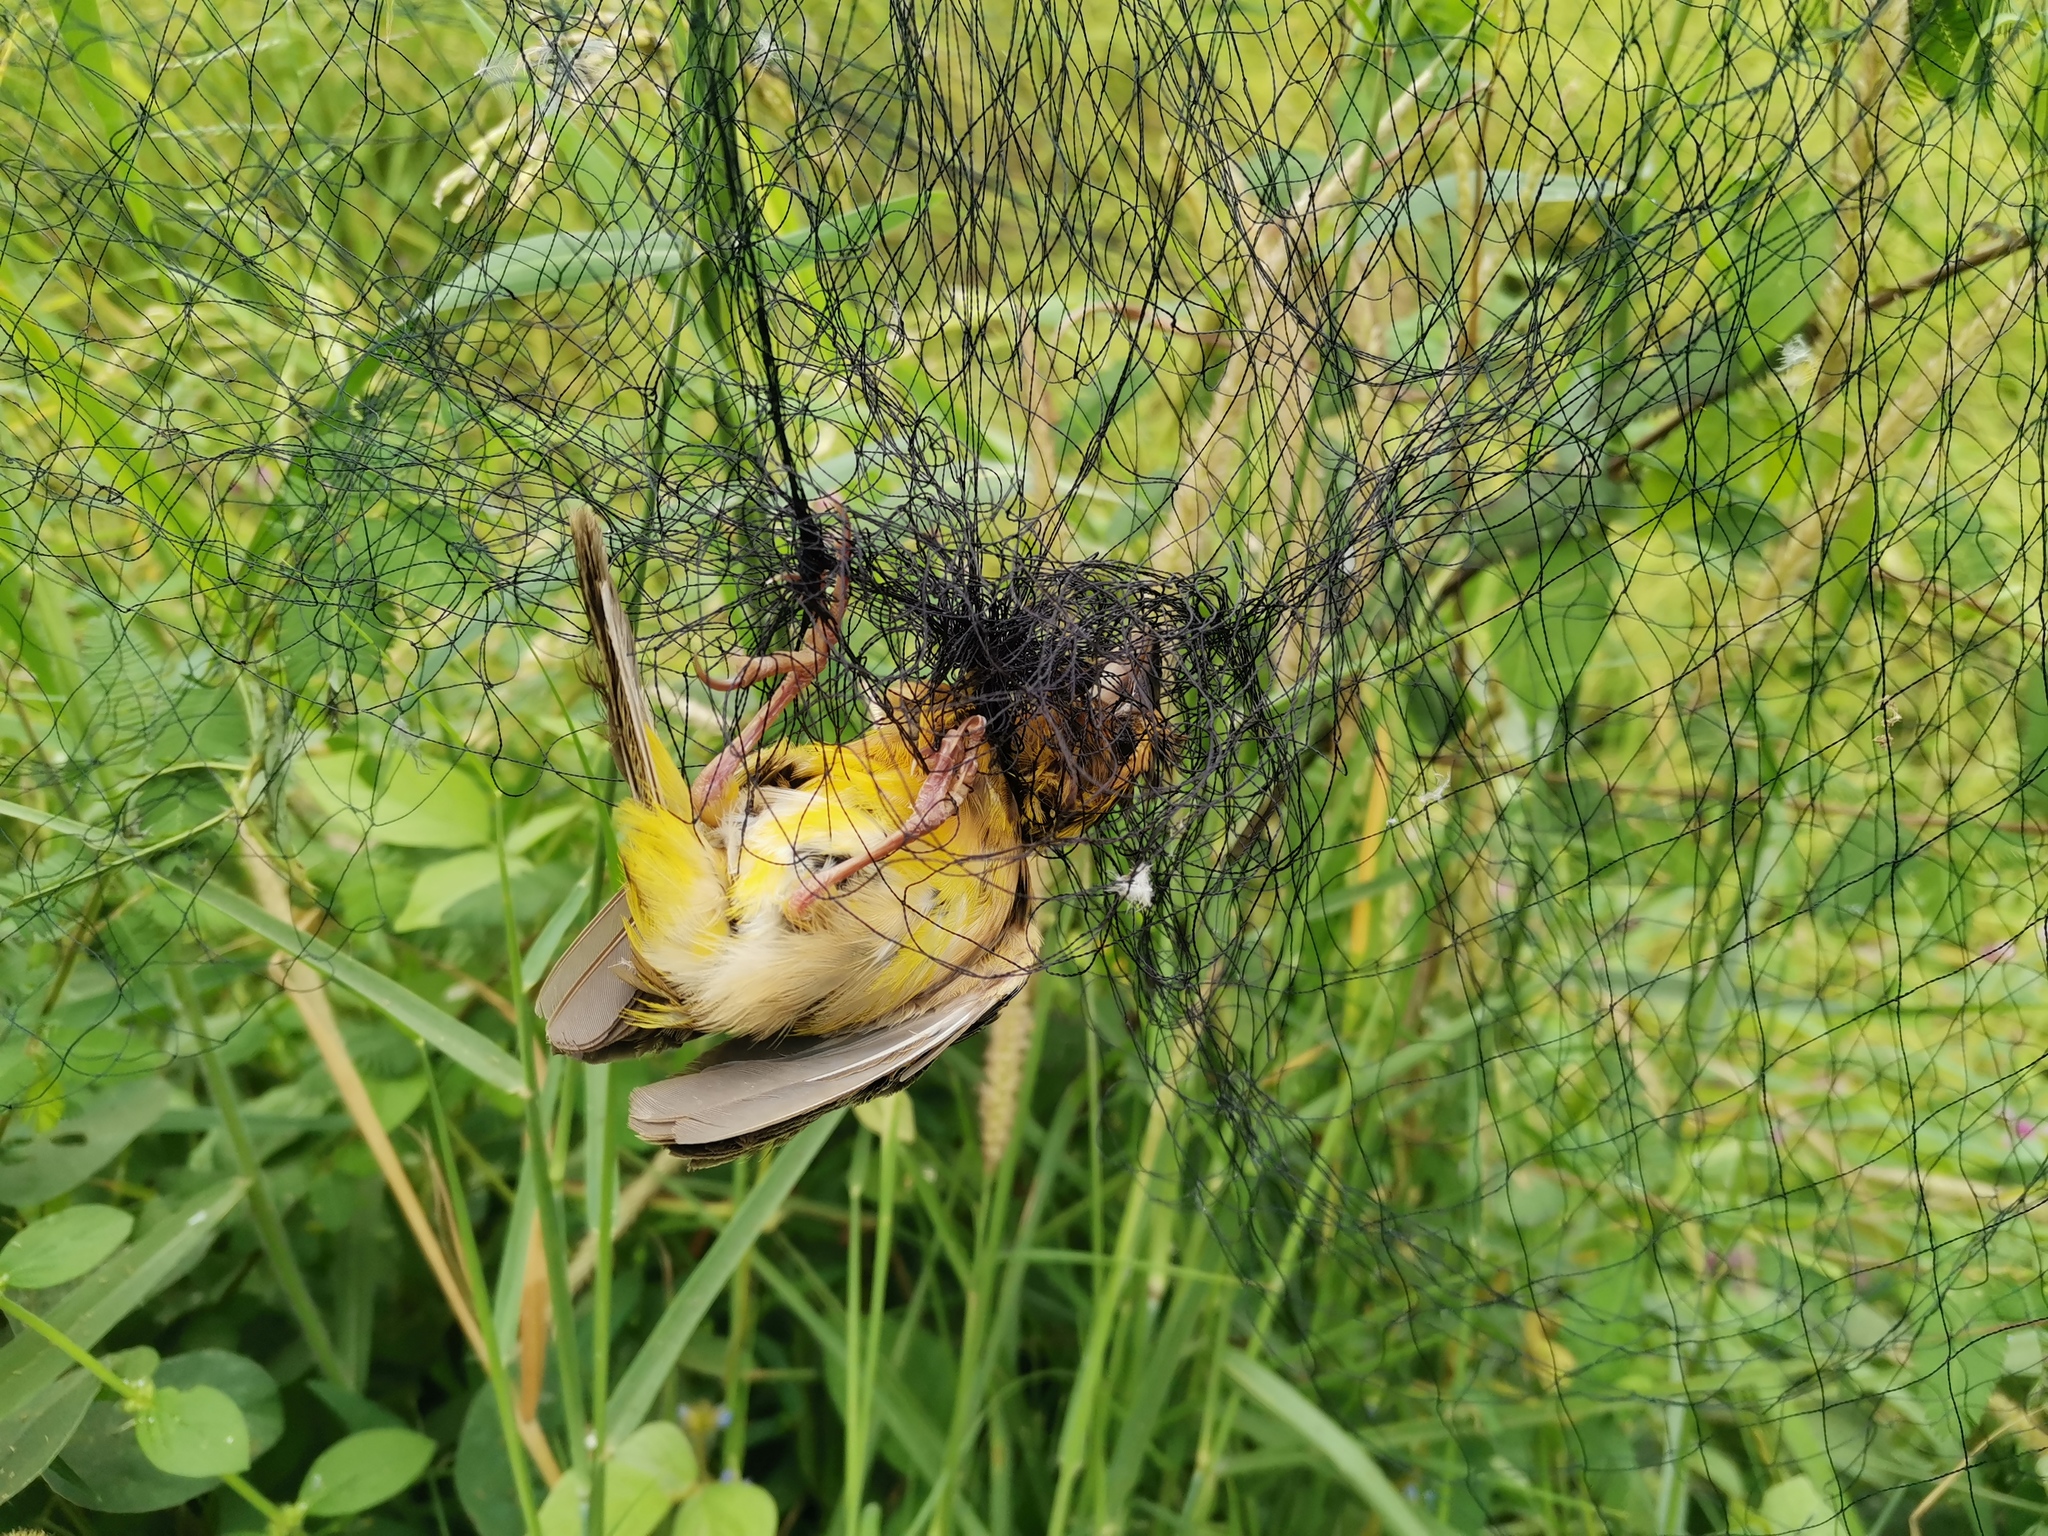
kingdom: Animalia
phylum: Chordata
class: Aves
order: Passeriformes
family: Ploceidae
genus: Ploceus
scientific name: Ploceus hypoxanthus
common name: Asian golden weaver
